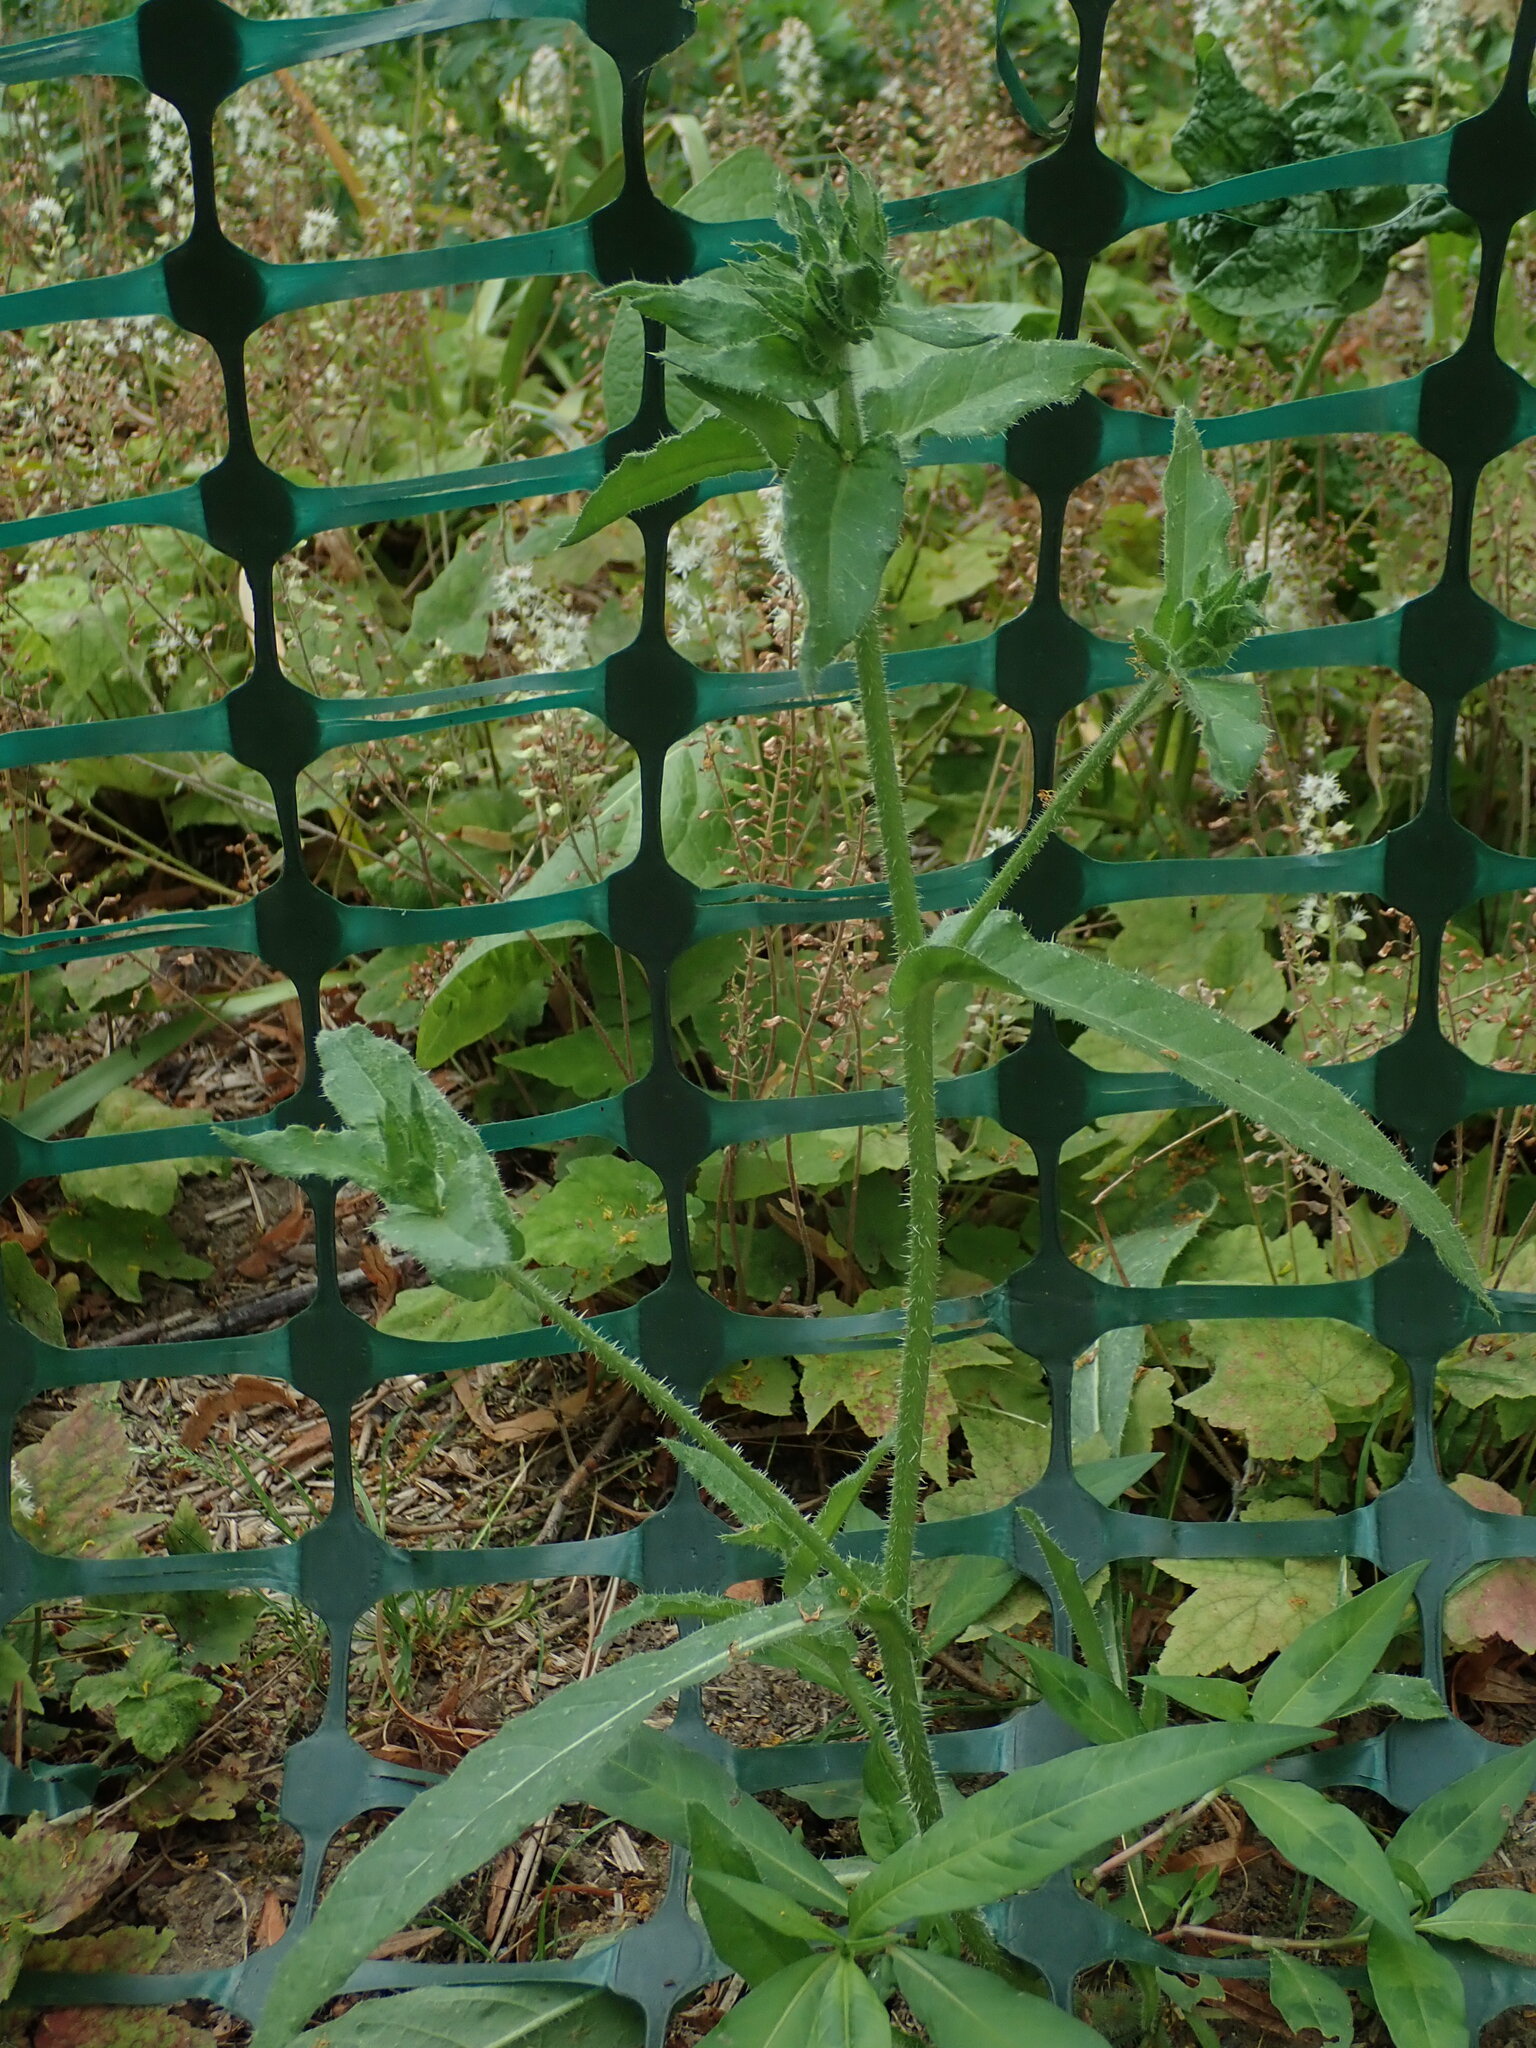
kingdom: Plantae
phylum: Tracheophyta
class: Magnoliopsida
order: Asterales
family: Asteraceae
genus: Helminthotheca
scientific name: Helminthotheca echioides
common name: Ox-tongue
